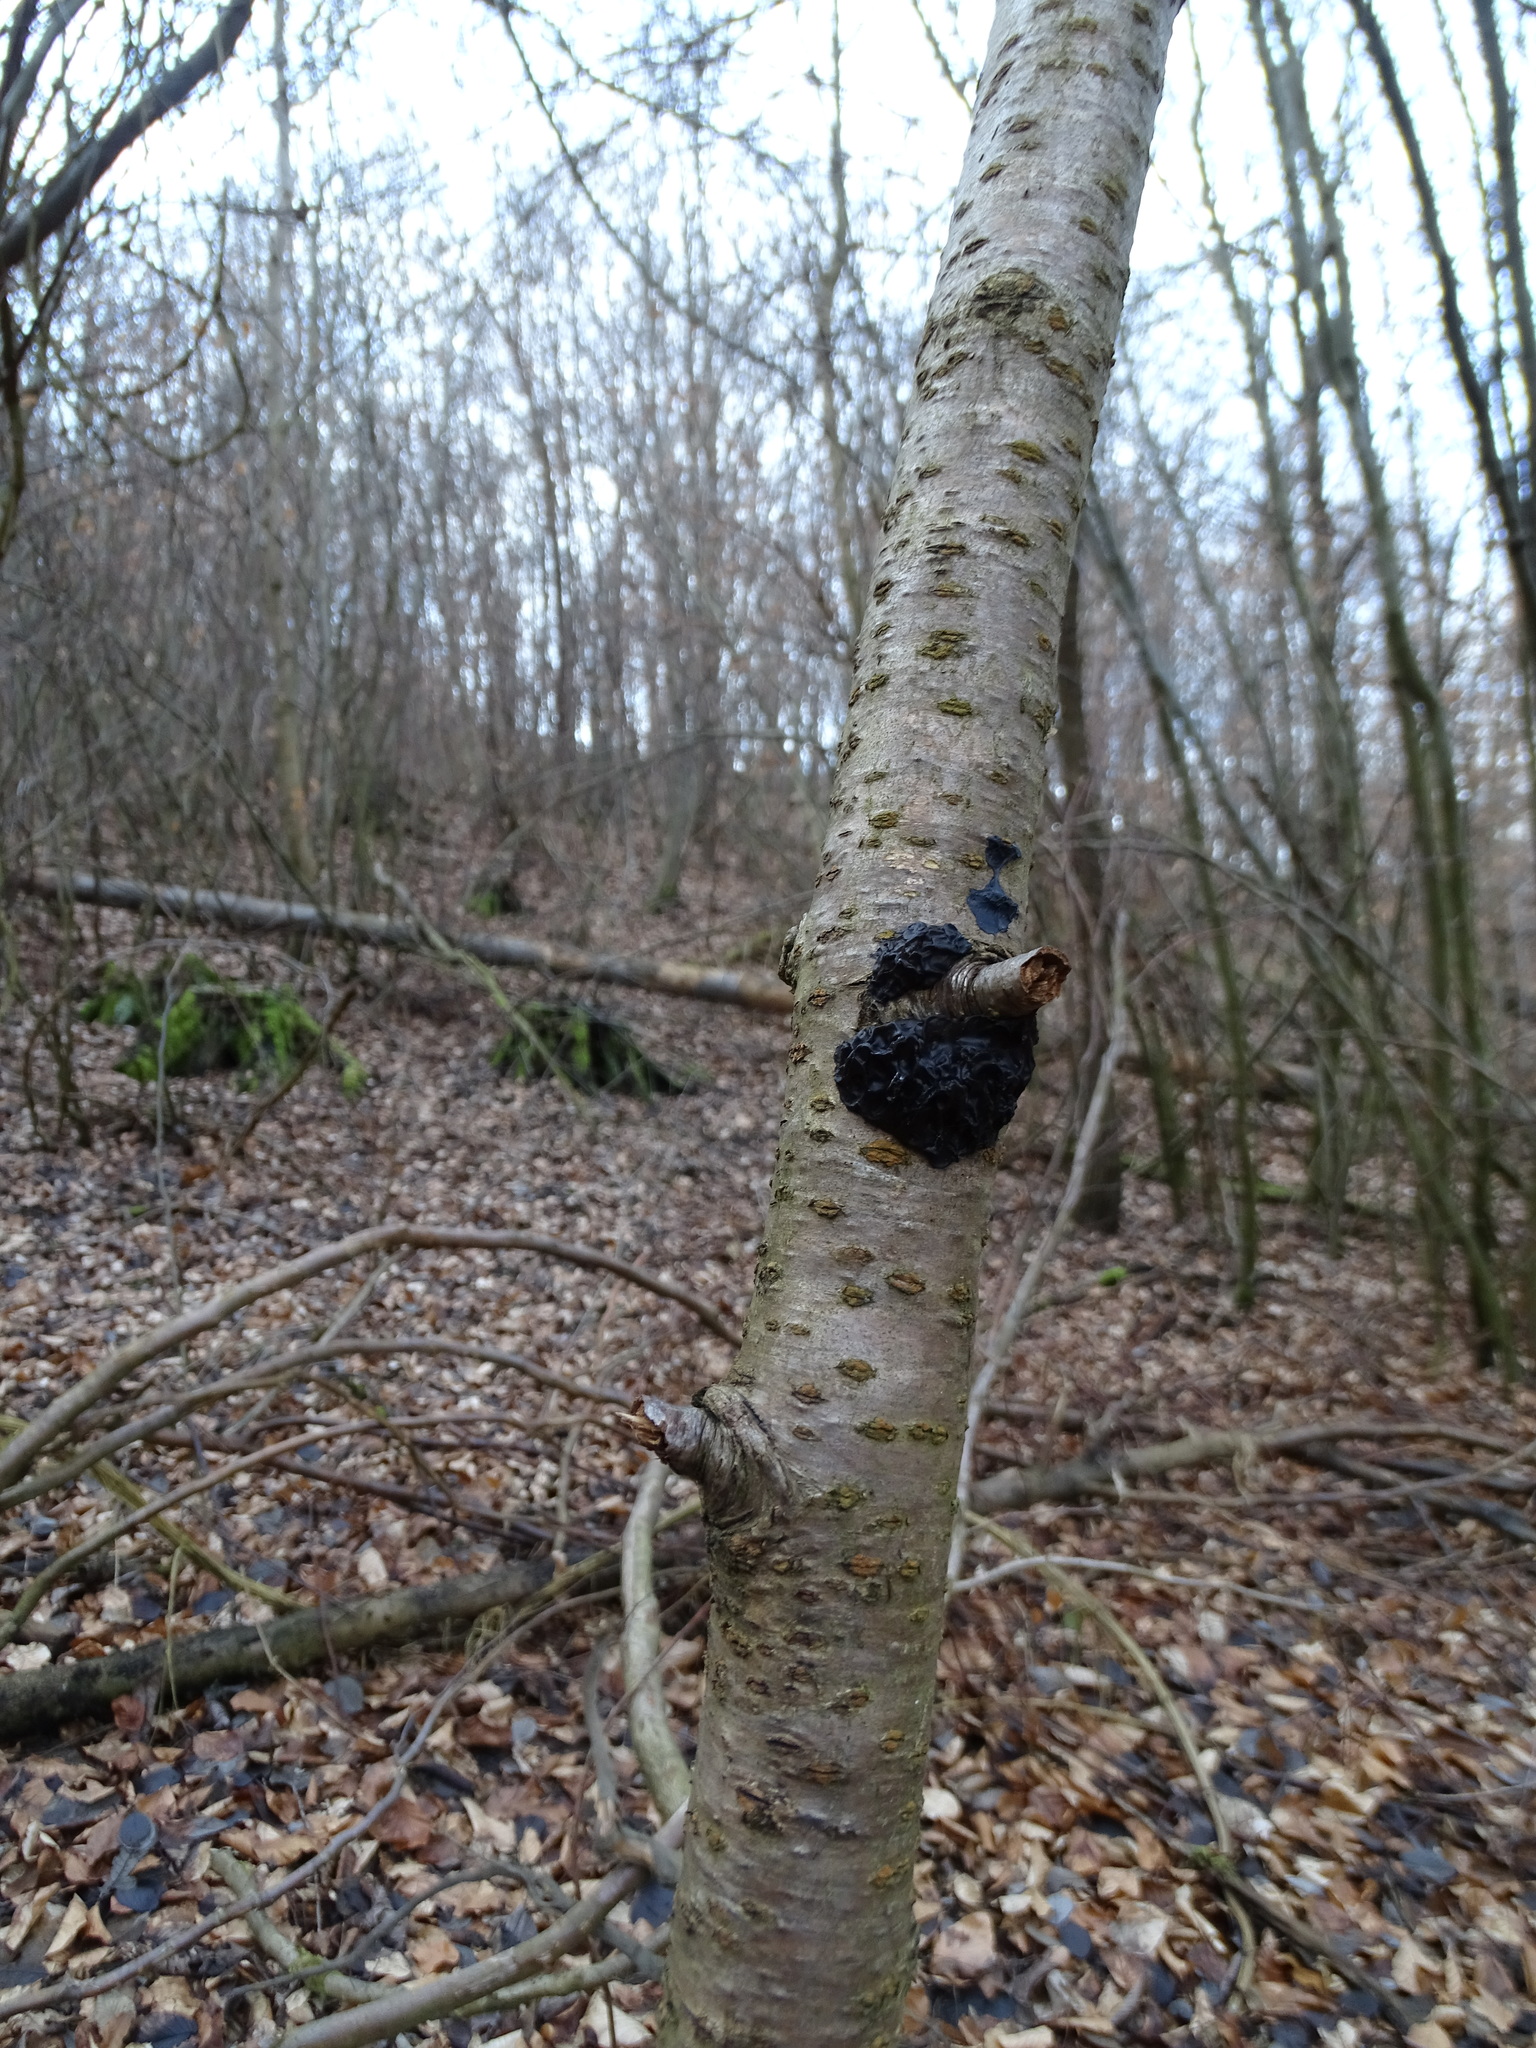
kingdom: Fungi
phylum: Basidiomycota
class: Agaricomycetes
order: Auriculariales
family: Auriculariaceae
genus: Exidia
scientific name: Exidia nigricans
